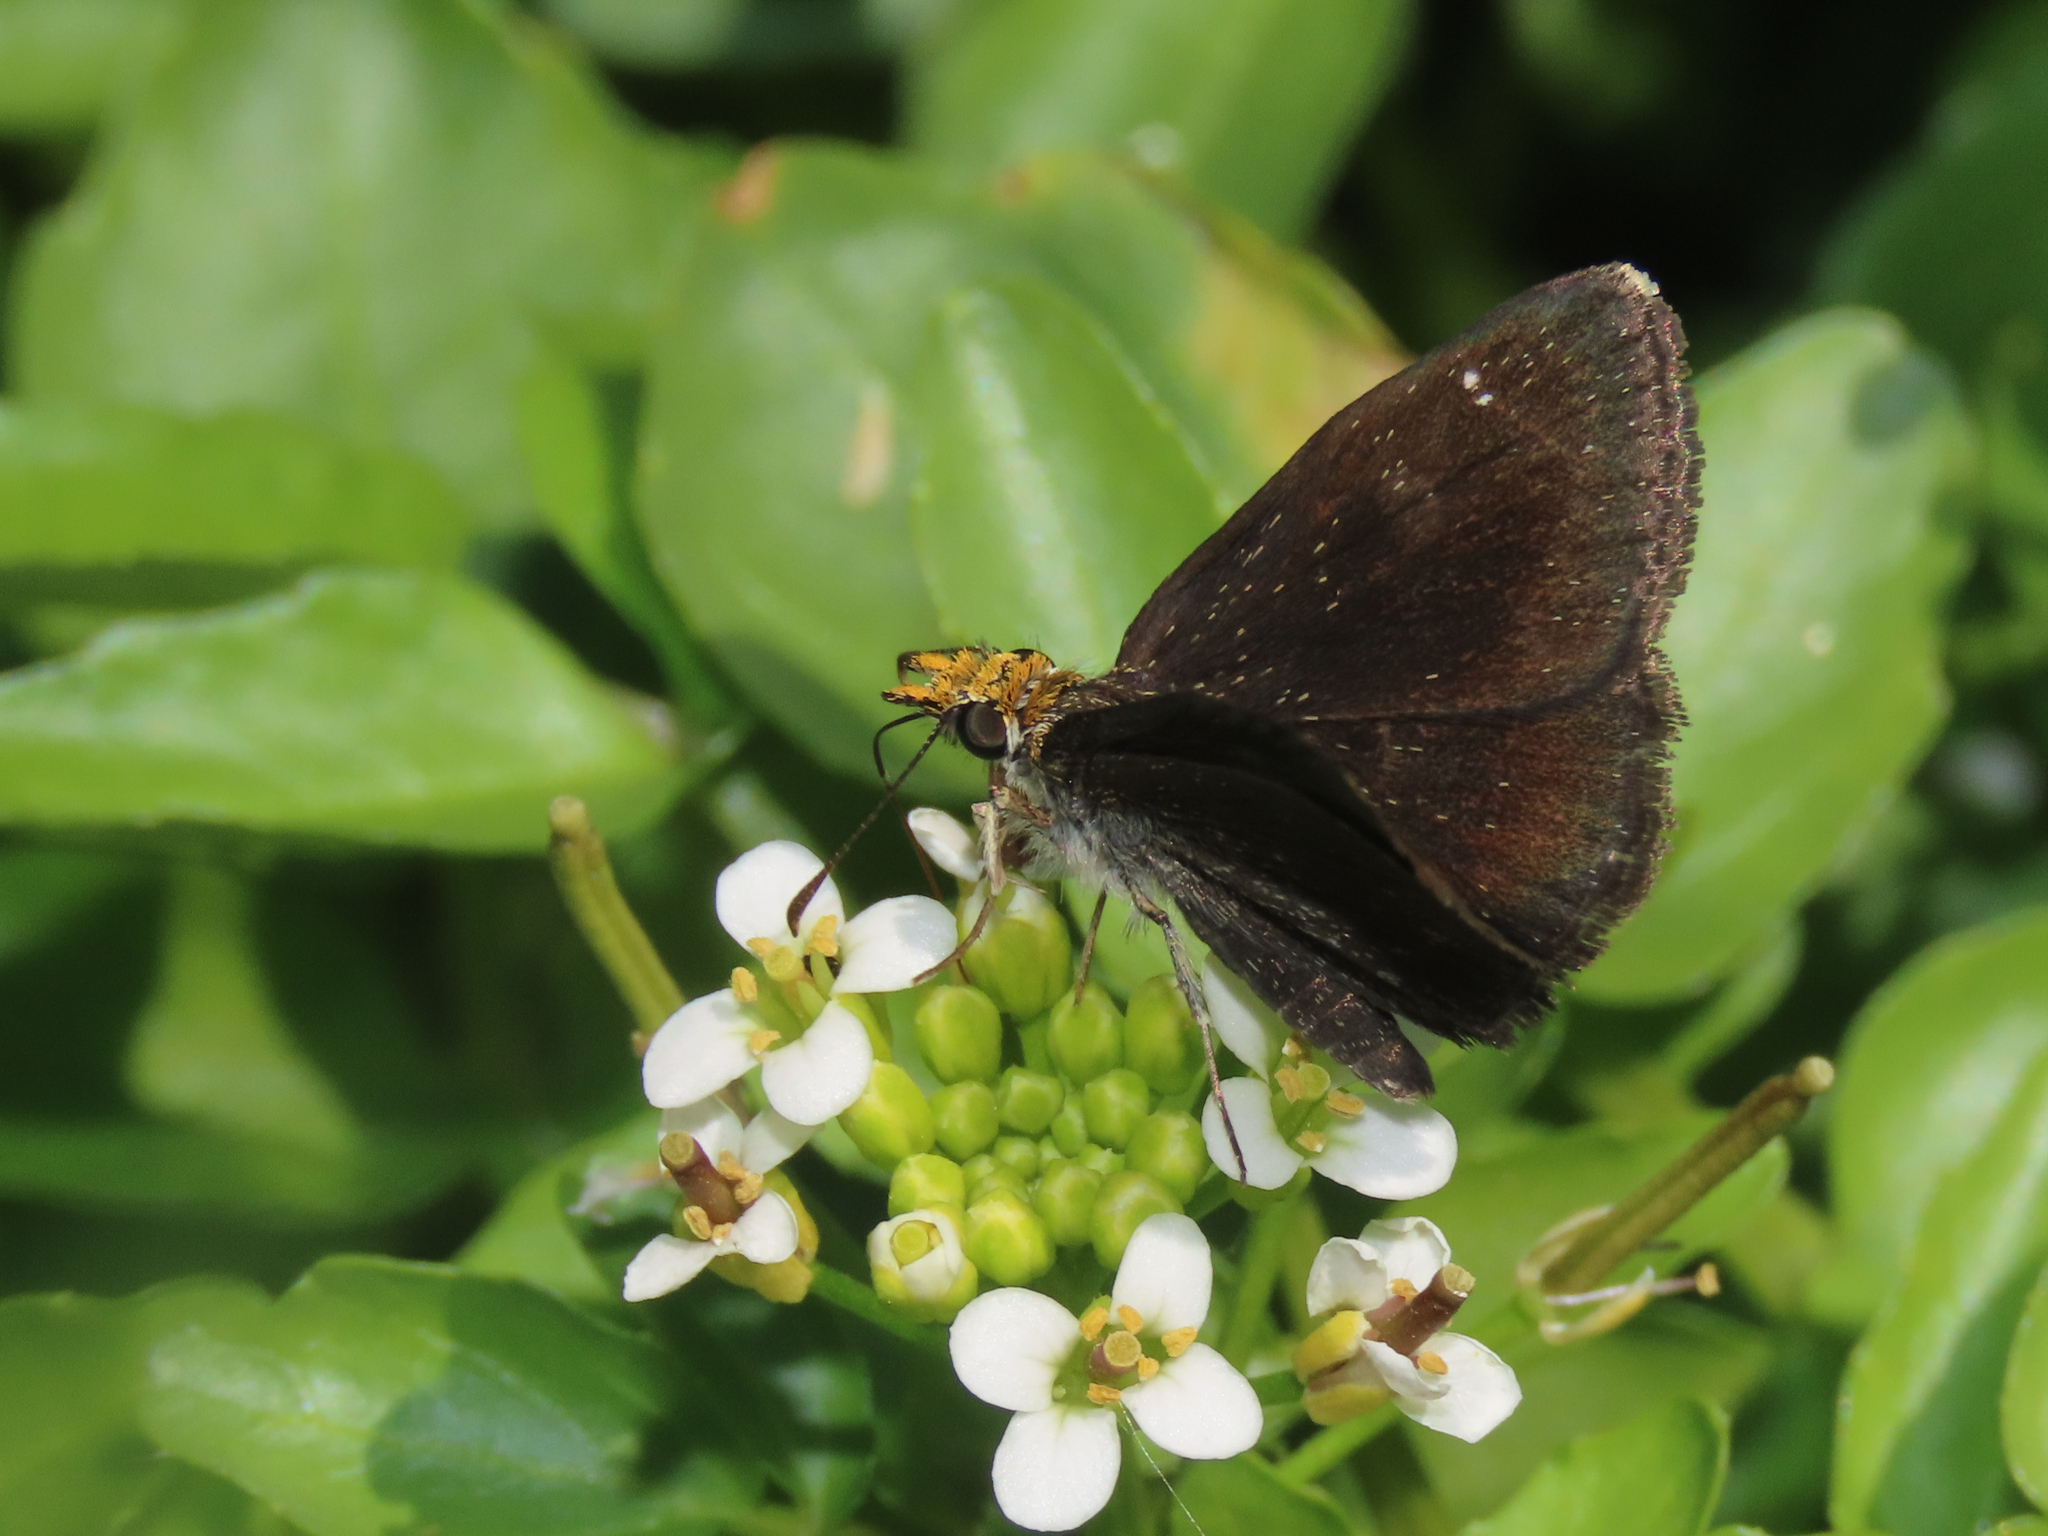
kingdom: Animalia
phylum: Arthropoda
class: Insecta
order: Lepidoptera
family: Hesperiidae
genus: Staphylus
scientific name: Staphylus ceos
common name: Golden-headed scallopwing
